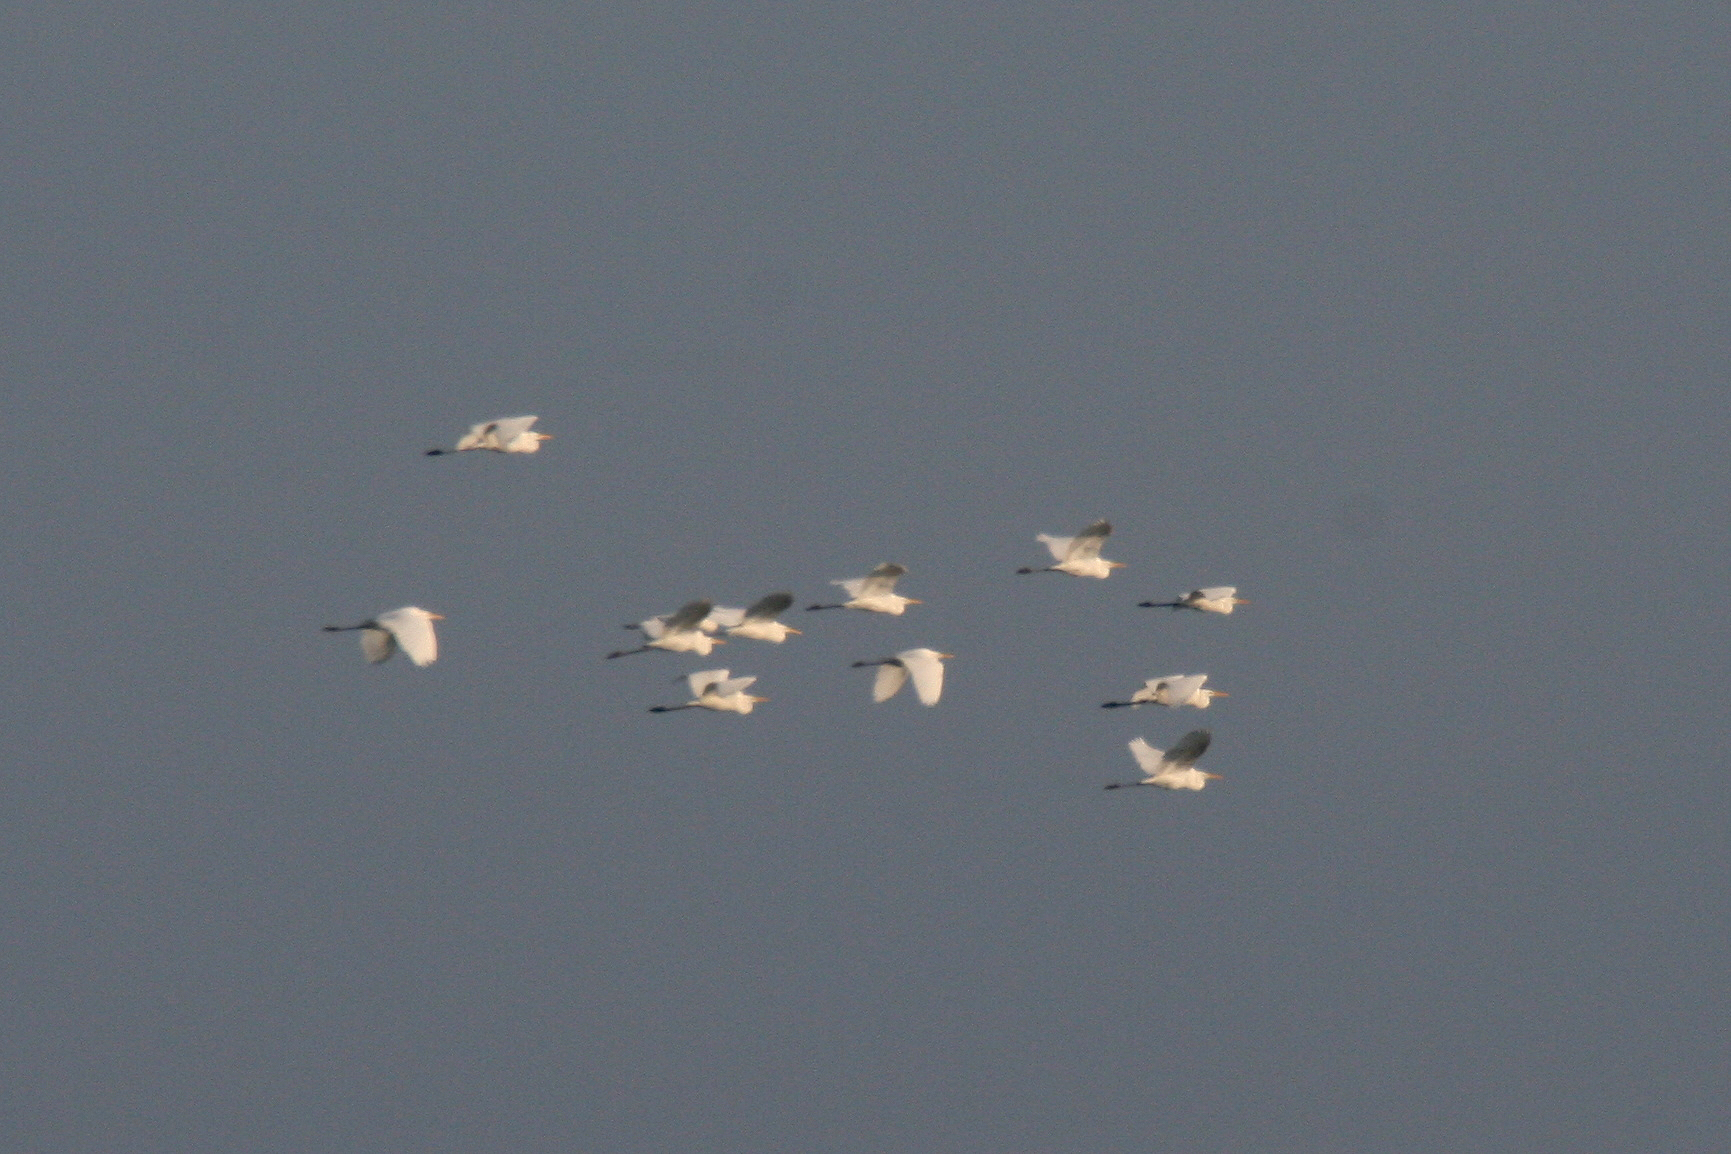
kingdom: Animalia
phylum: Chordata
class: Aves
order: Pelecaniformes
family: Ardeidae
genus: Ardea
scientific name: Ardea alba
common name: Great egret
